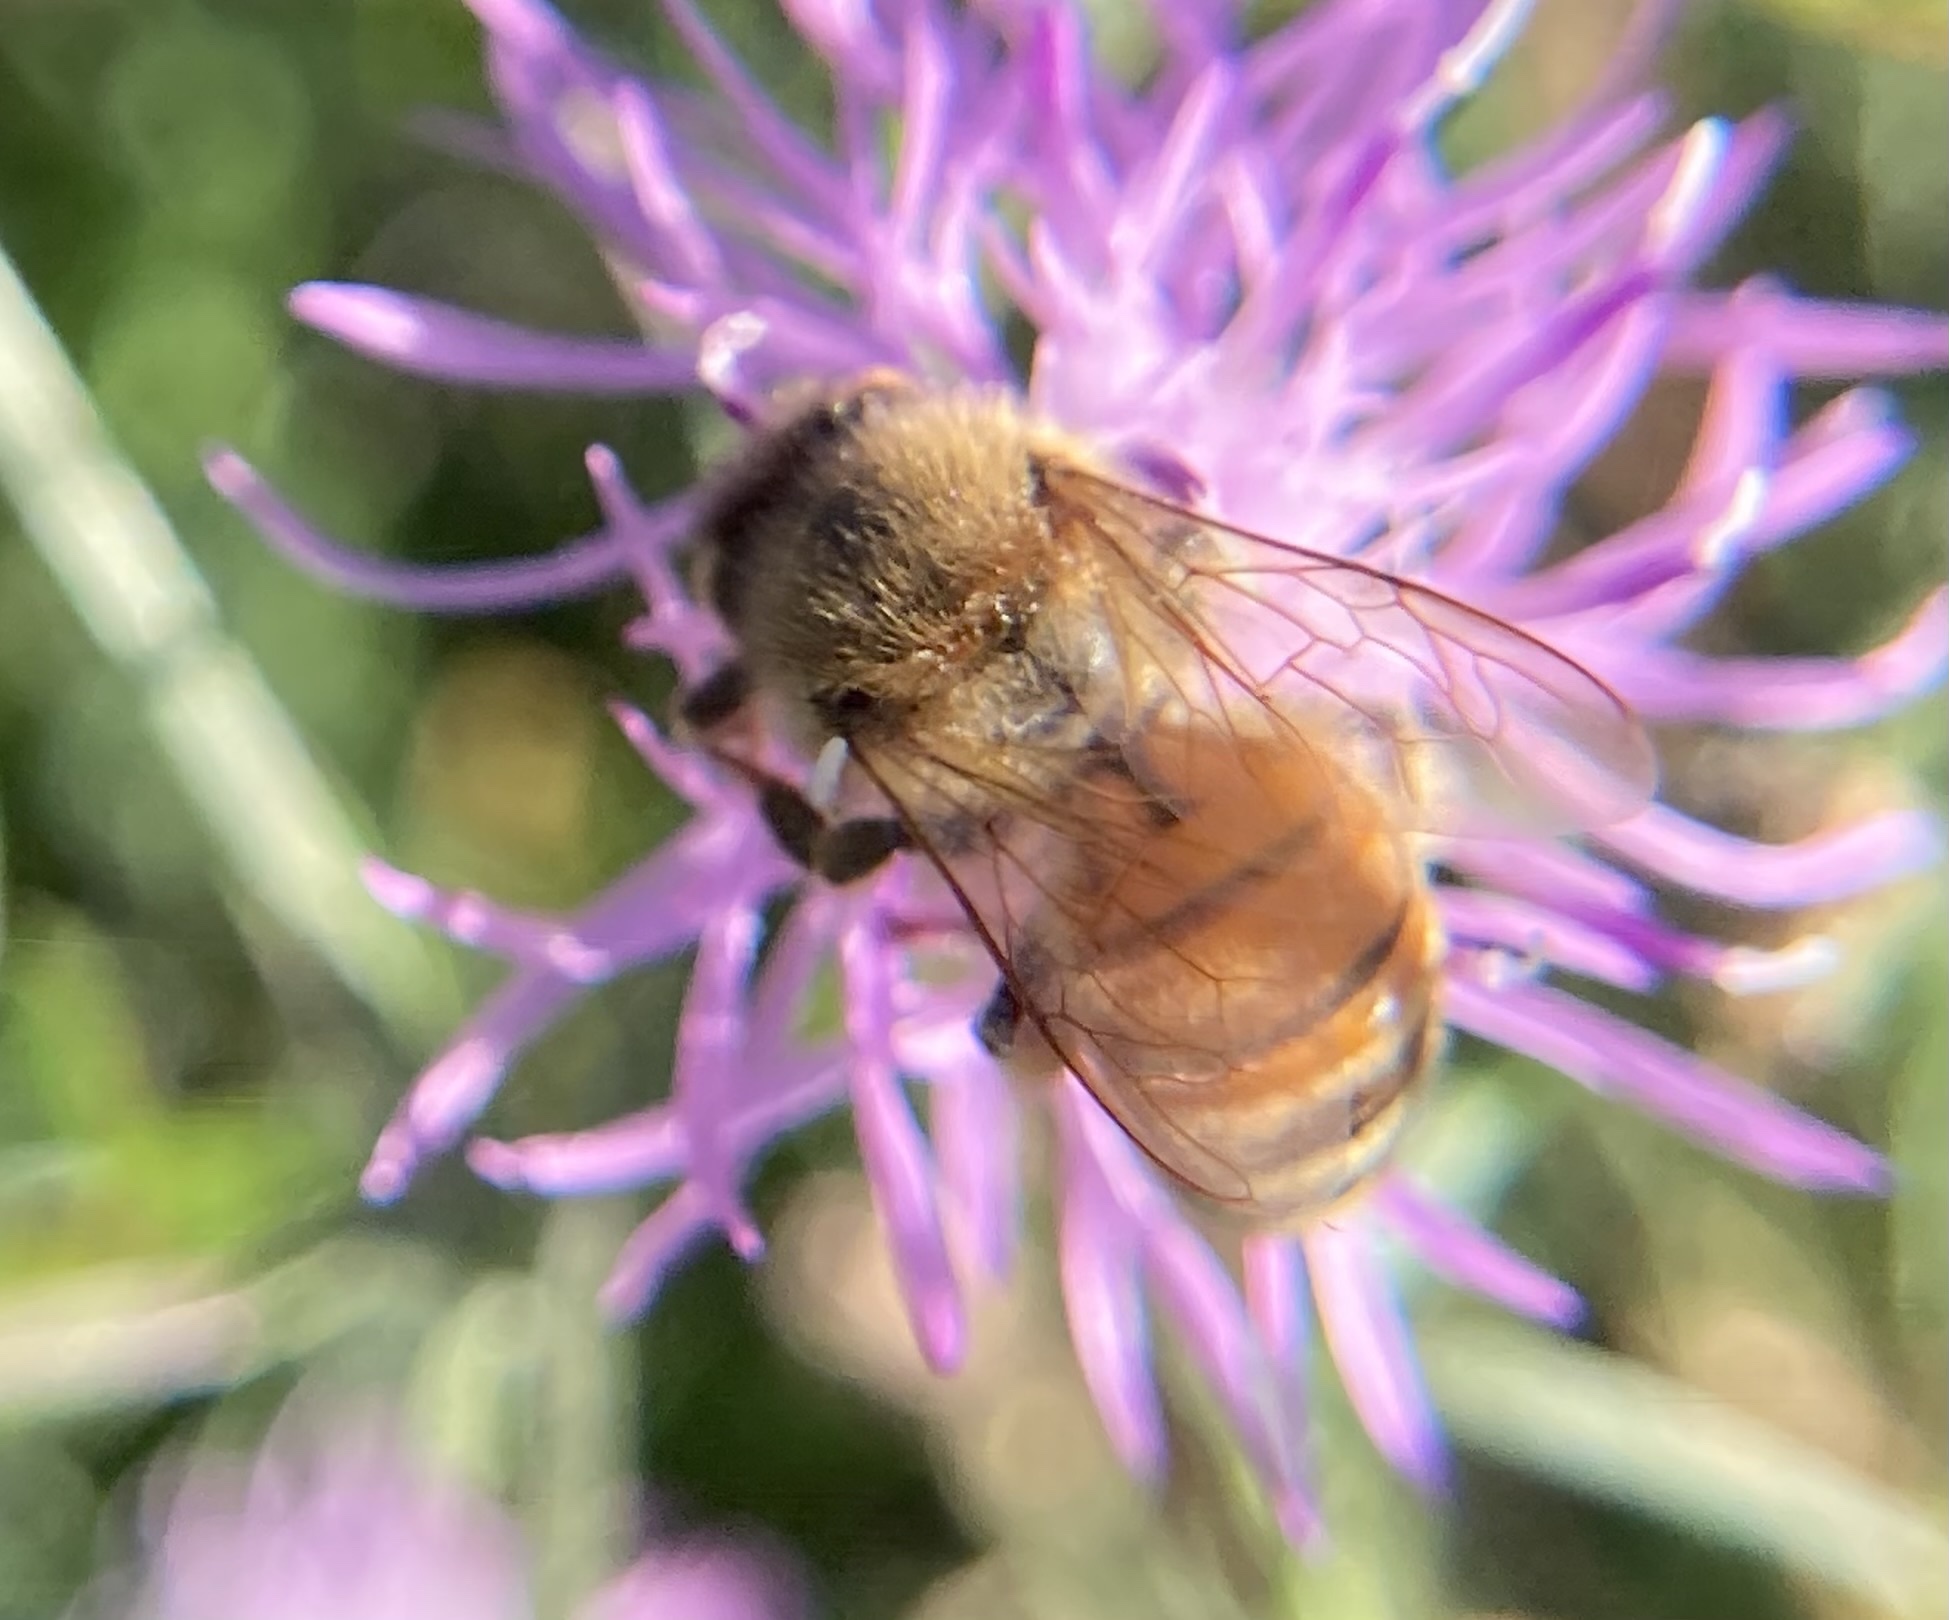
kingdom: Animalia
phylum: Arthropoda
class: Insecta
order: Hymenoptera
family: Apidae
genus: Apis
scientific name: Apis mellifera
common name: Honey bee
